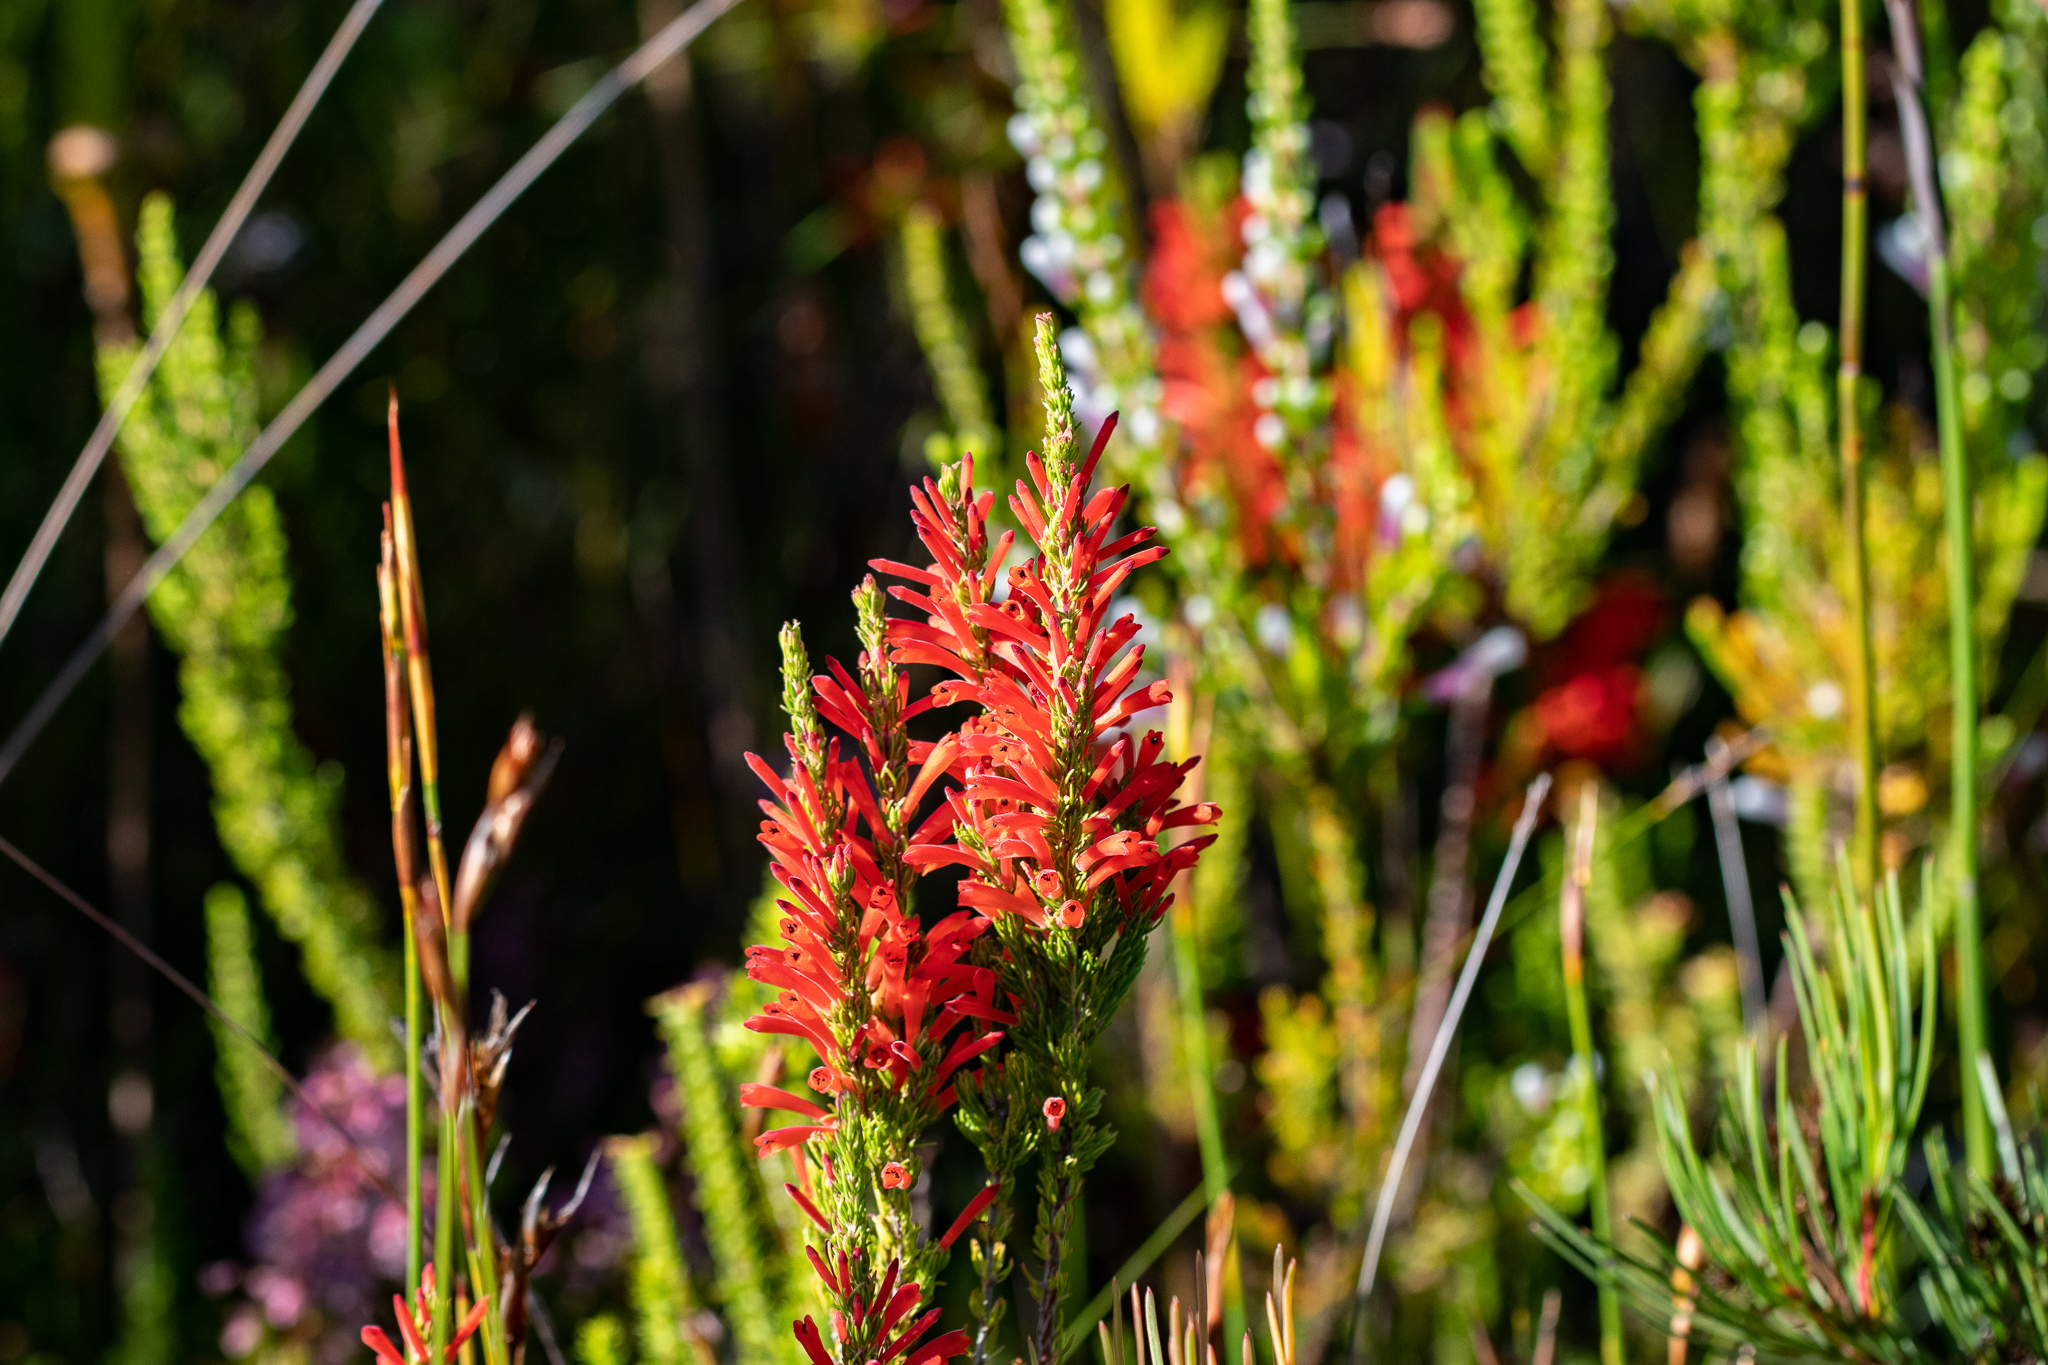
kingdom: Plantae
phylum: Tracheophyta
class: Magnoliopsida
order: Ericales
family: Ericaceae
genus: Erica
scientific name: Erica pillansii
